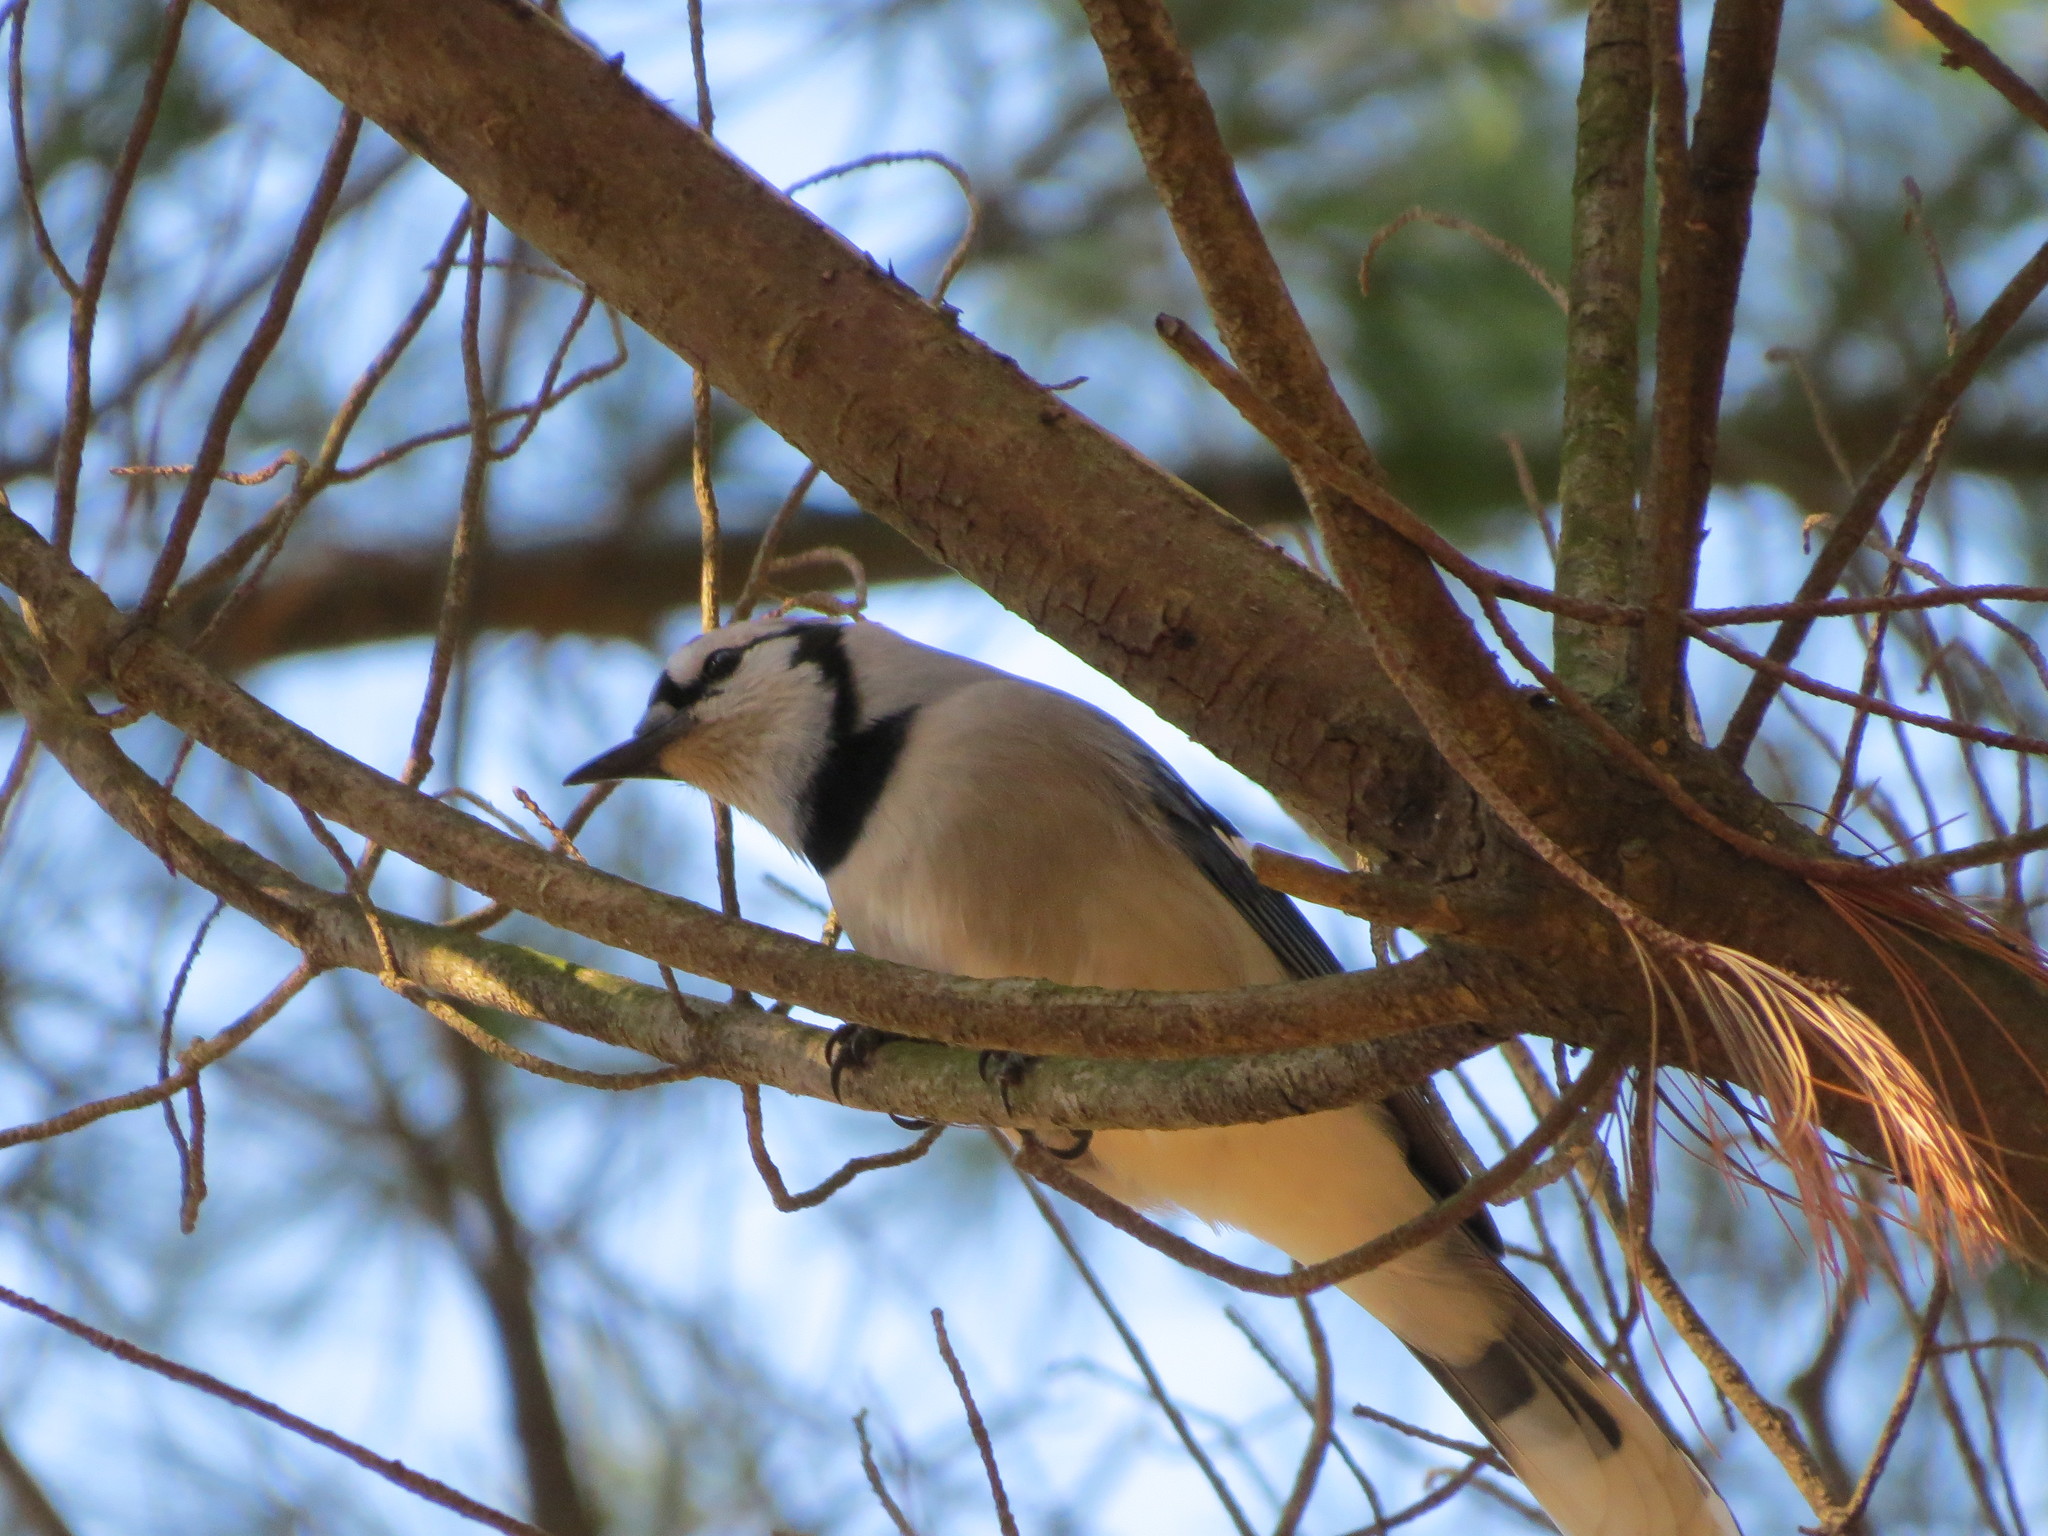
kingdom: Animalia
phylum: Chordata
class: Aves
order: Passeriformes
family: Corvidae
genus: Cyanocitta
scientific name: Cyanocitta cristata
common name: Blue jay
